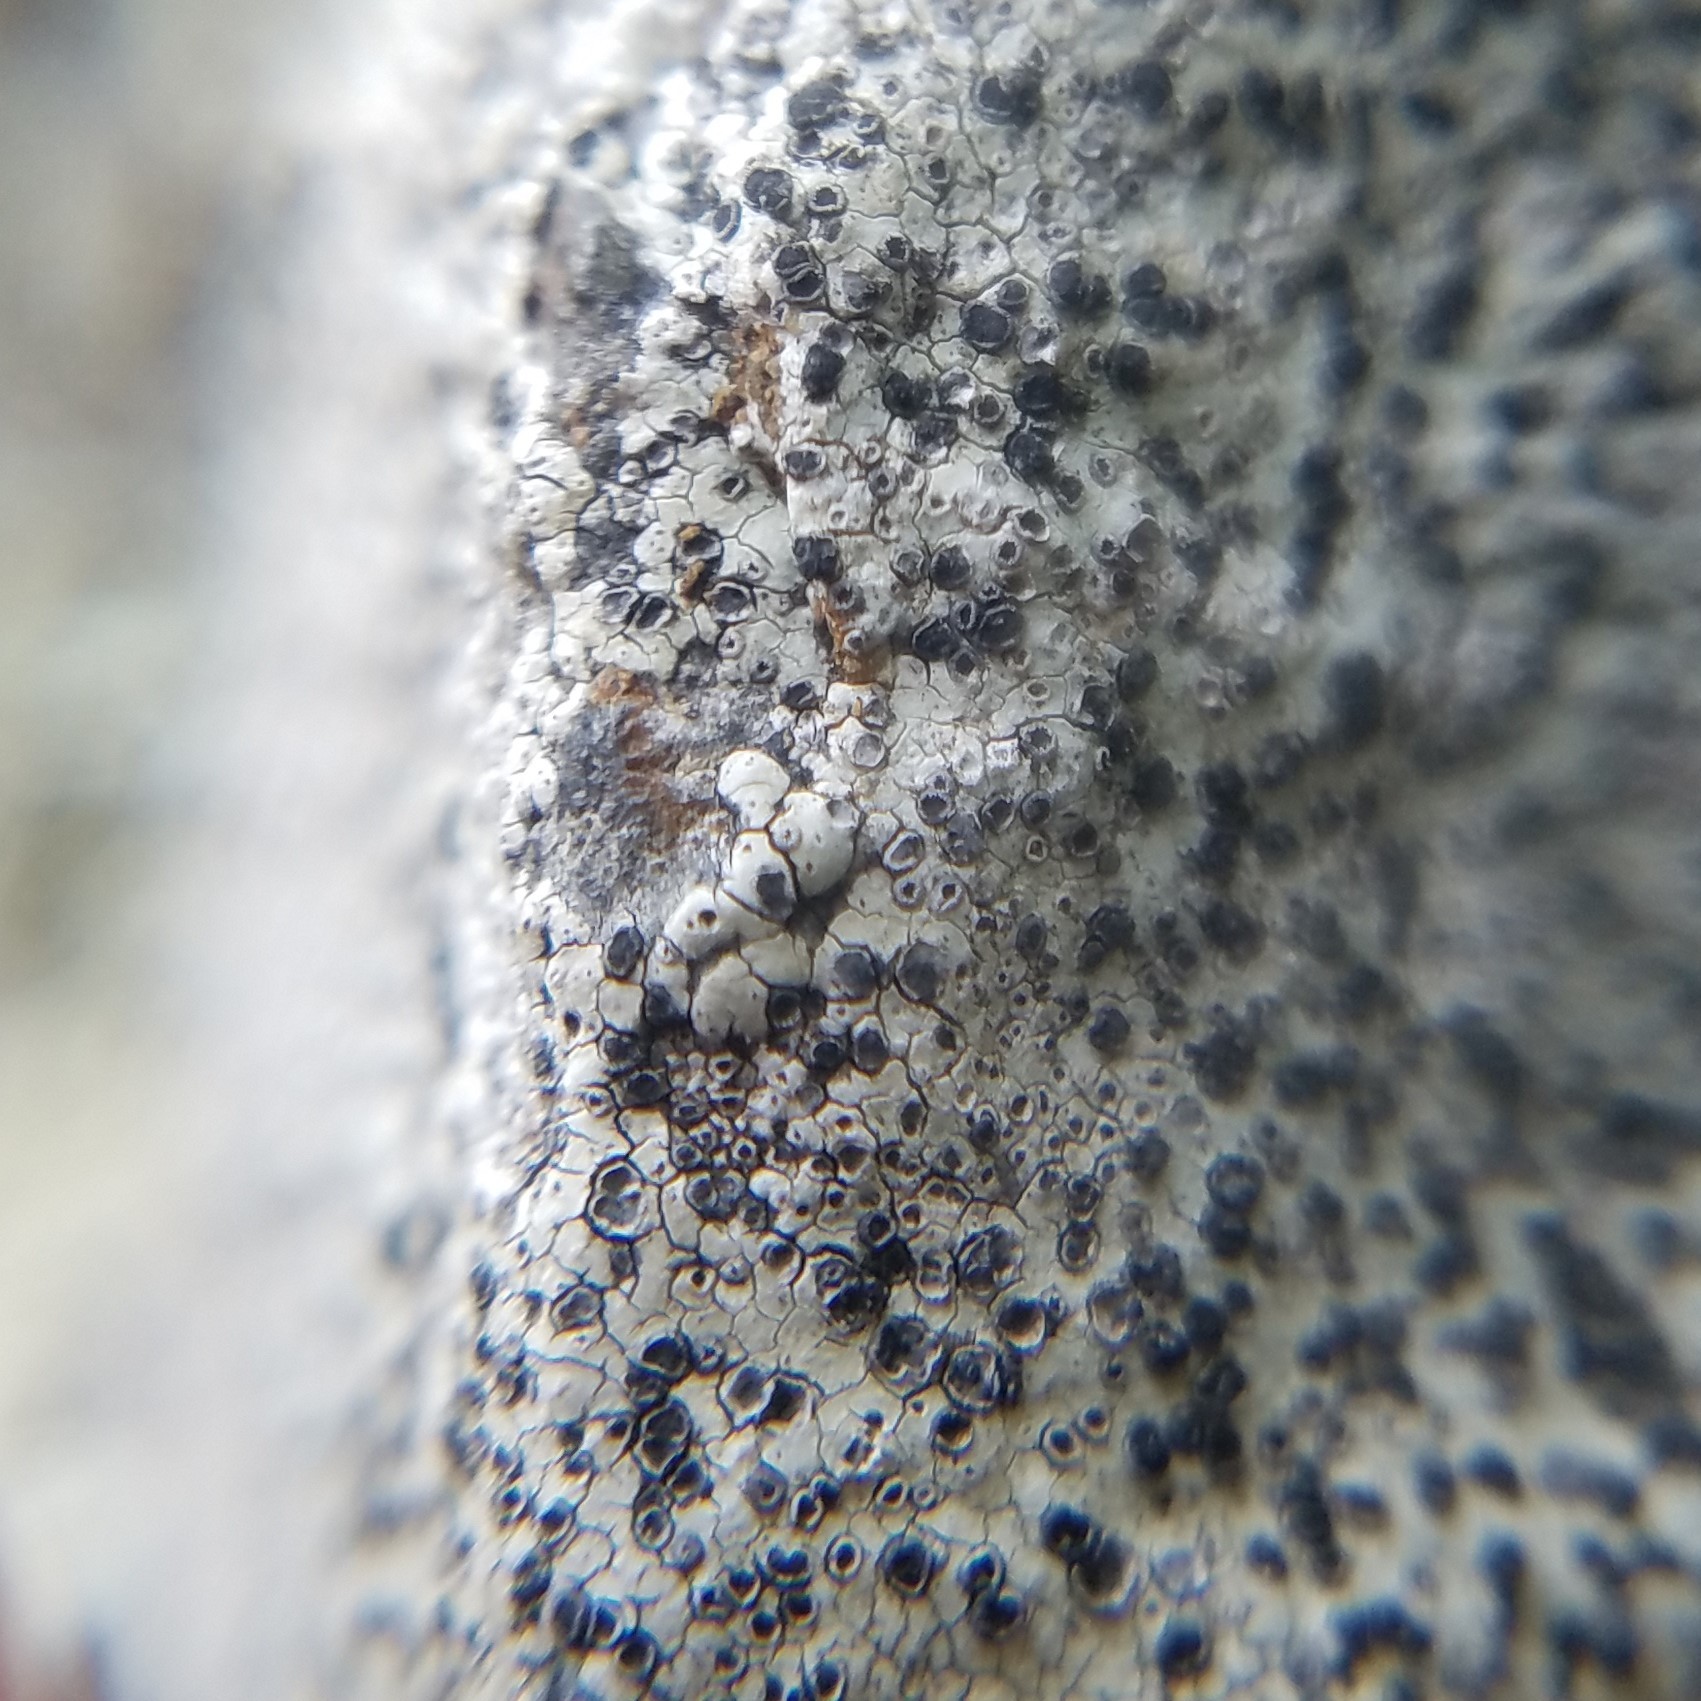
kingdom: Fungi
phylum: Ascomycota
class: Lecanoromycetes
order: Caliciales
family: Caliciaceae
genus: Buellia
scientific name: Buellia mamillana
